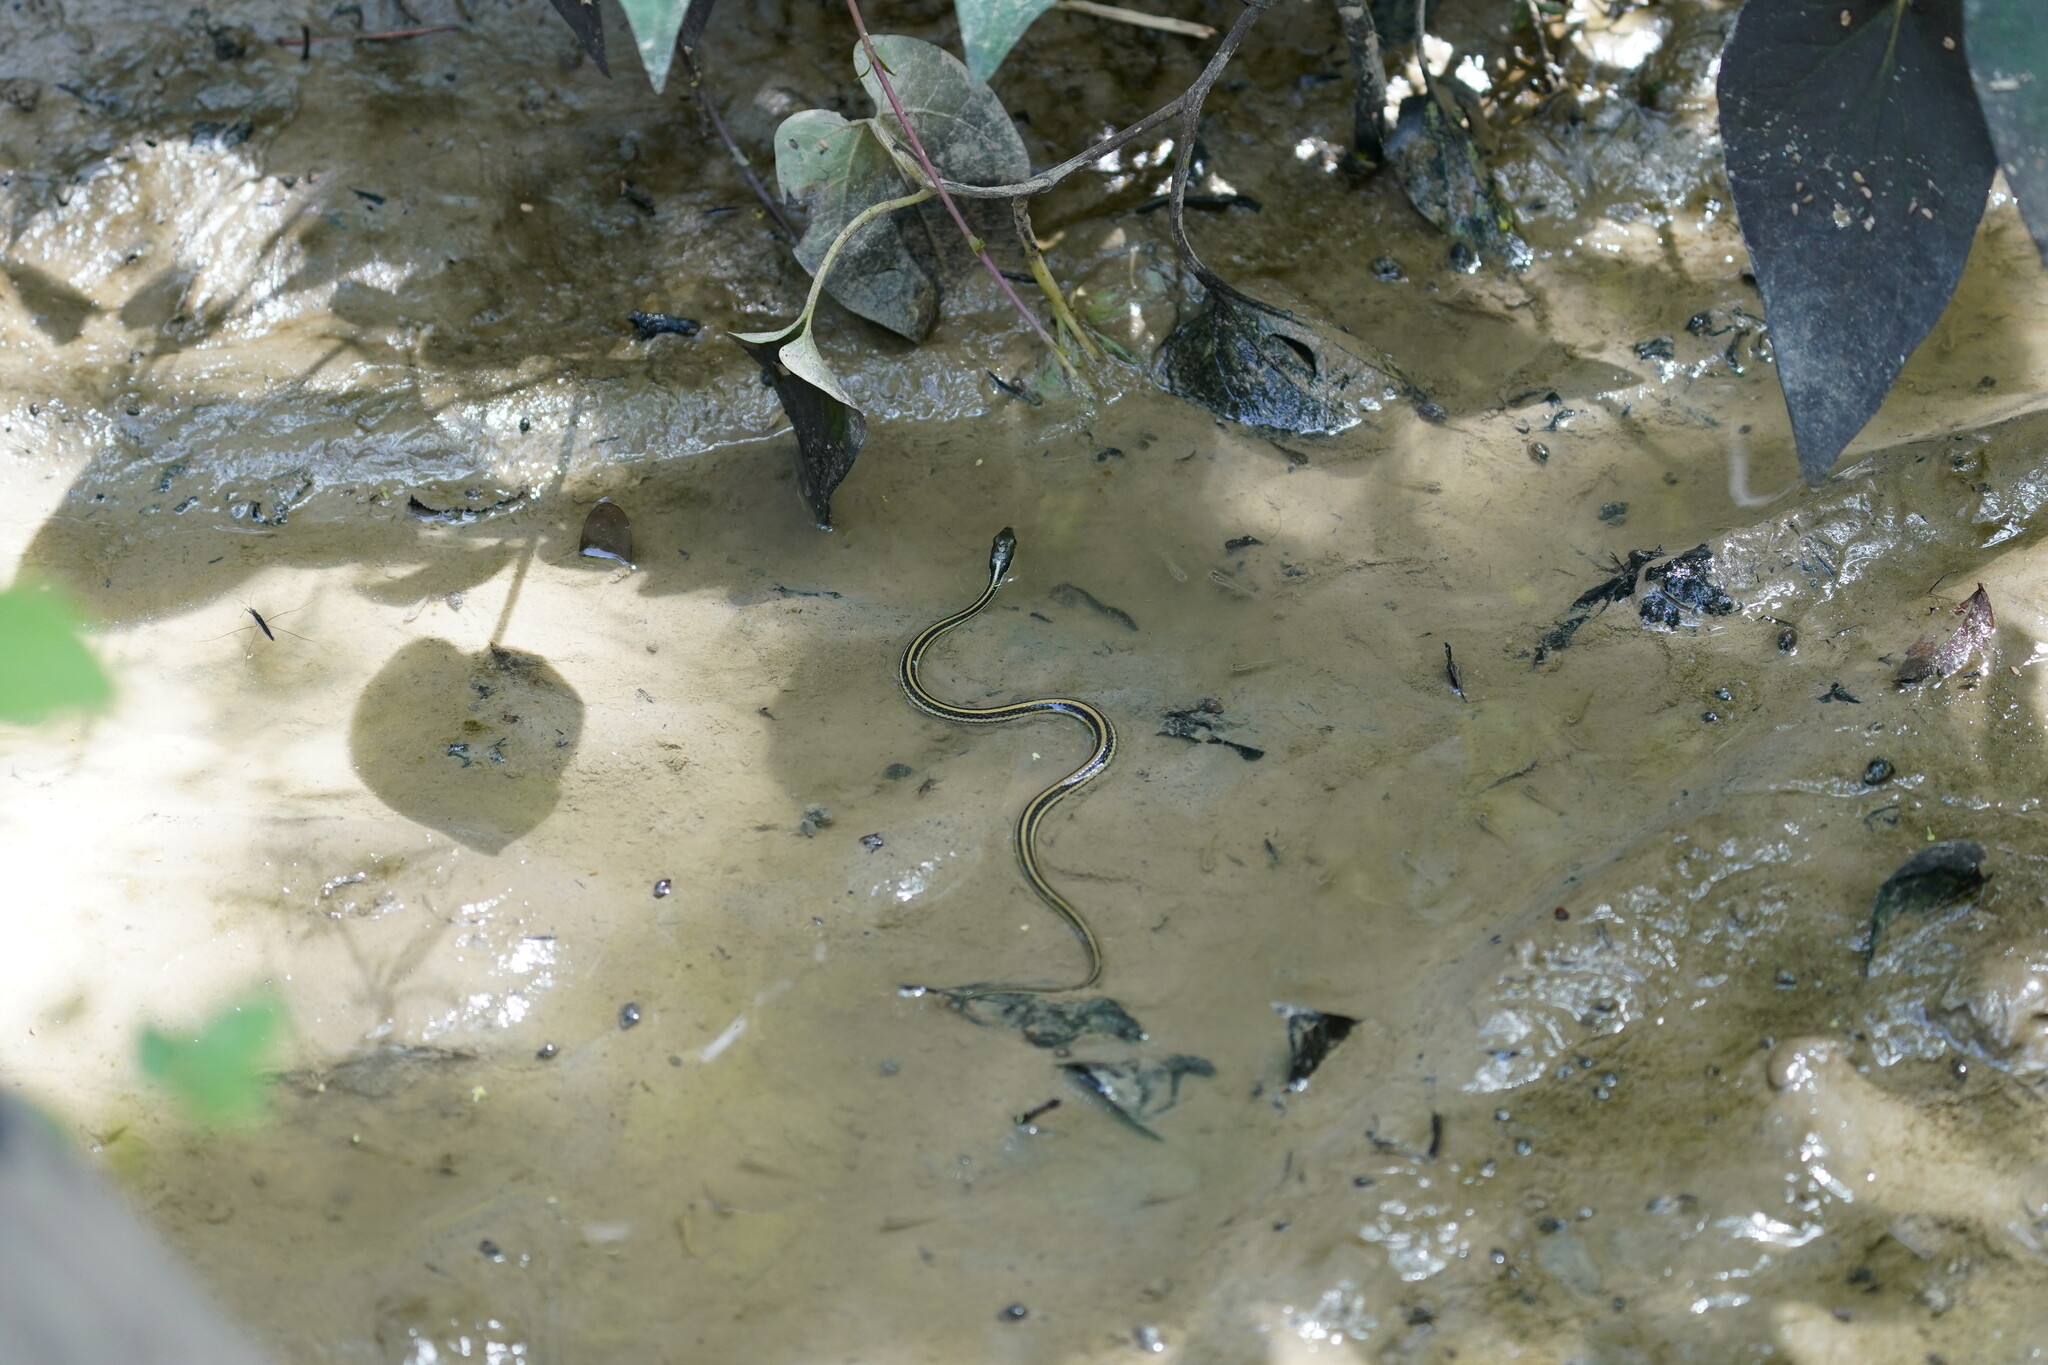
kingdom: Animalia
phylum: Chordata
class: Squamata
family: Colubridae
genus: Thamnophis
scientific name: Thamnophis proximus
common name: Western ribbon snake
